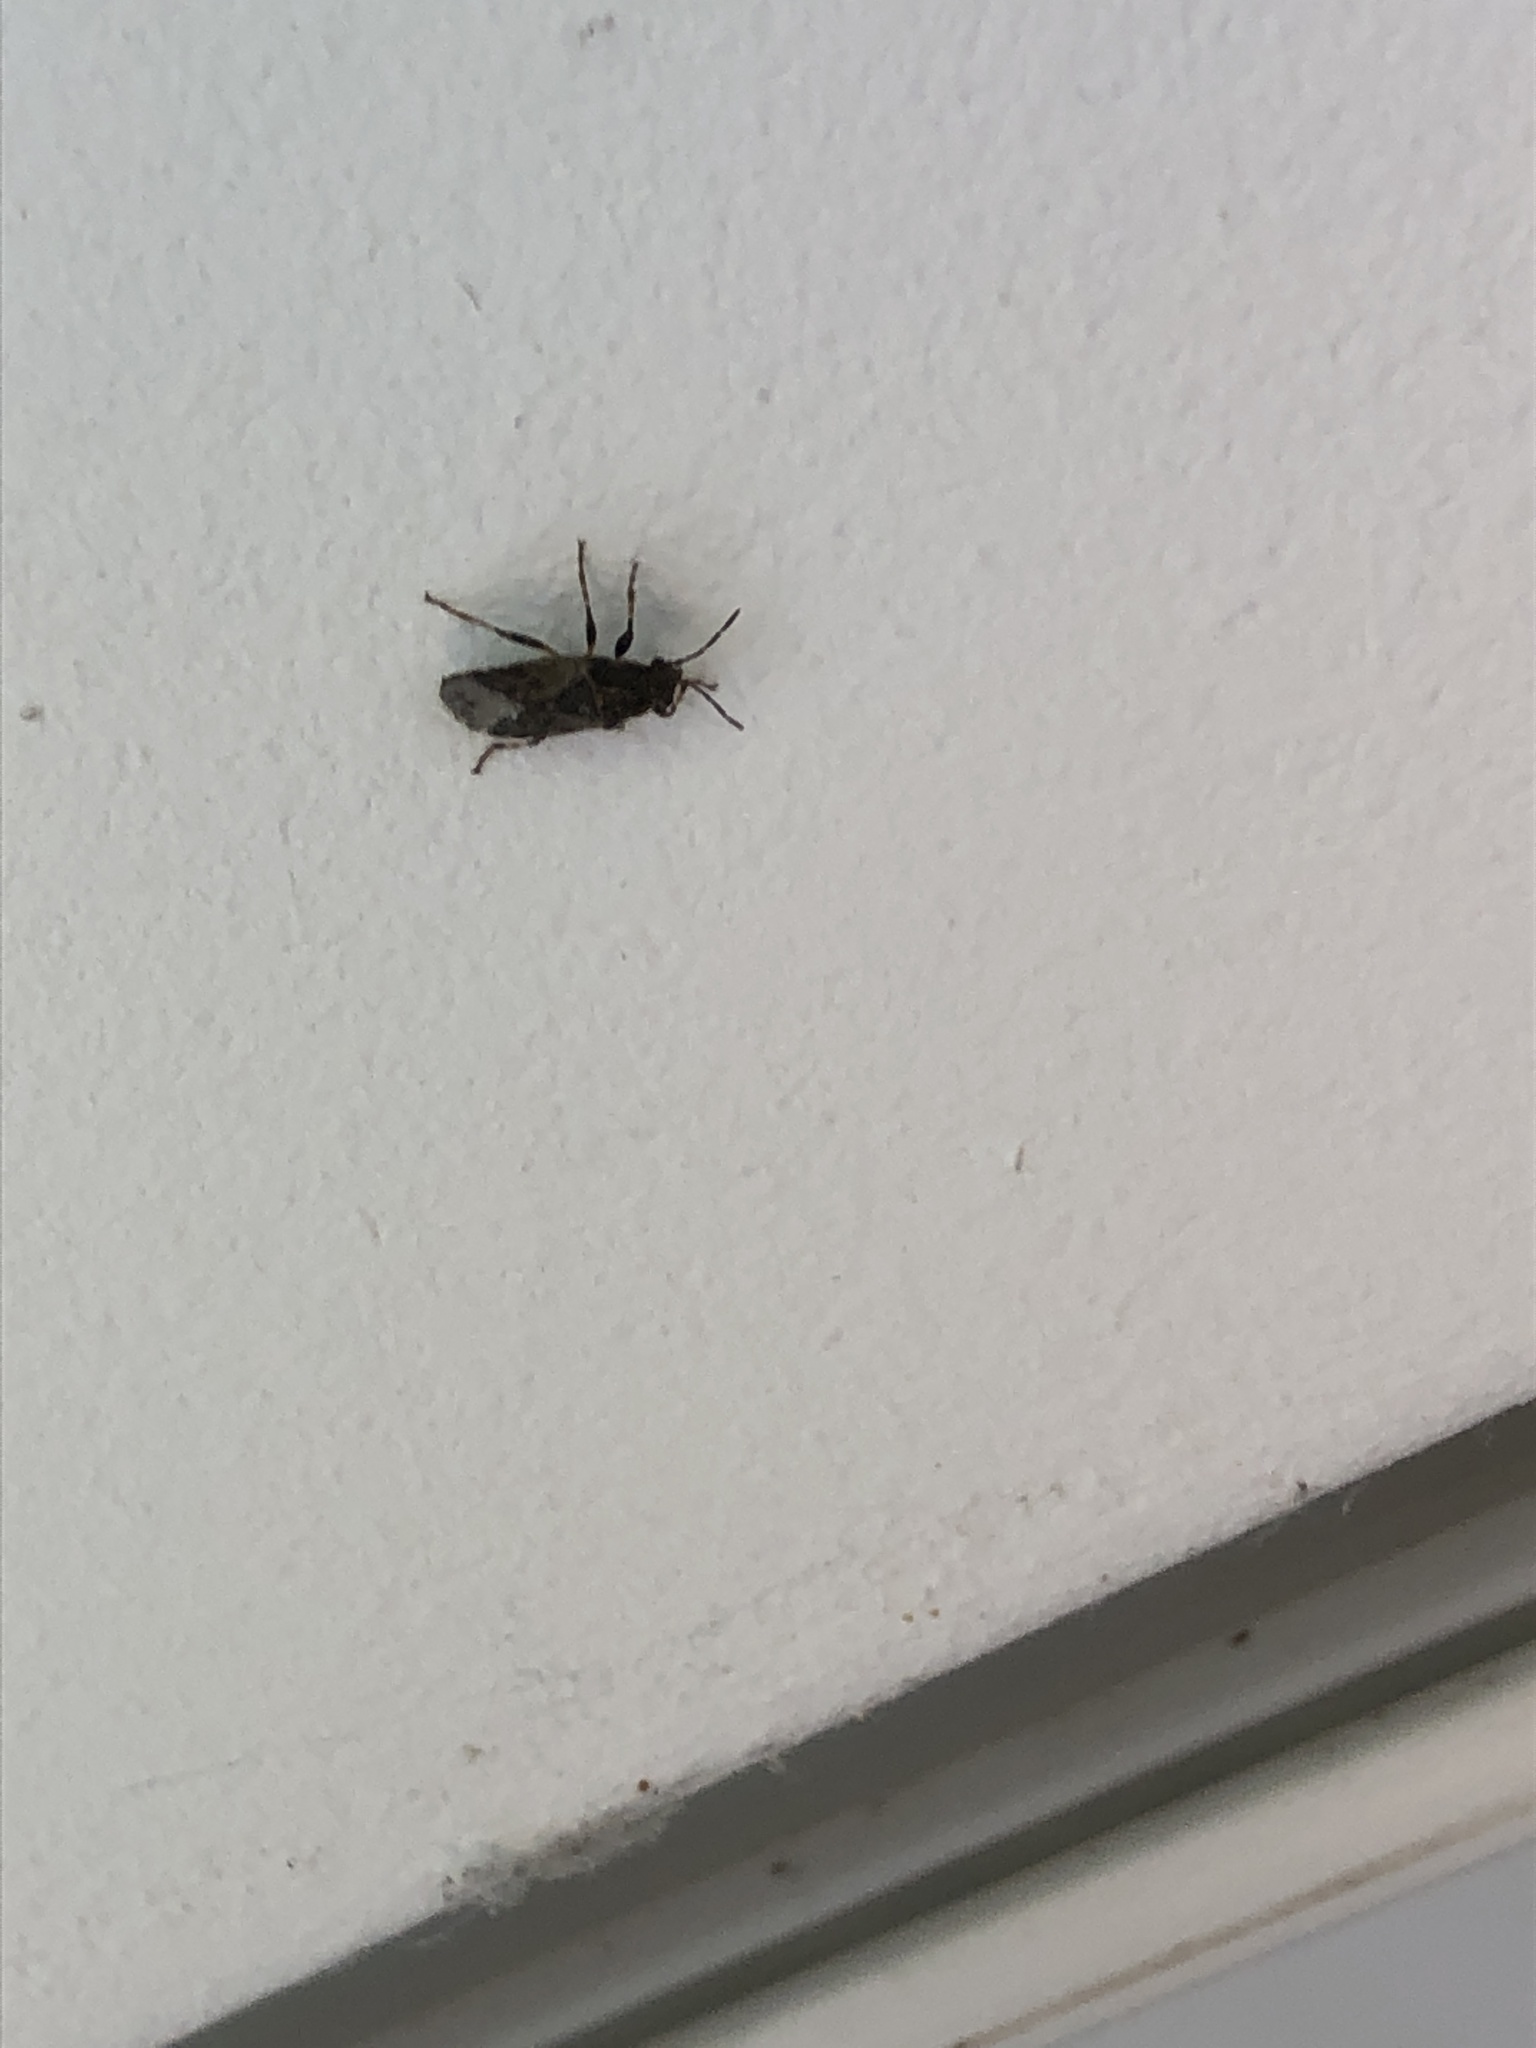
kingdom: Animalia
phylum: Arthropoda
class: Insecta
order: Hemiptera
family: Heterogastridae
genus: Heterogaster
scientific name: Heterogaster urticae
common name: Seed bug
